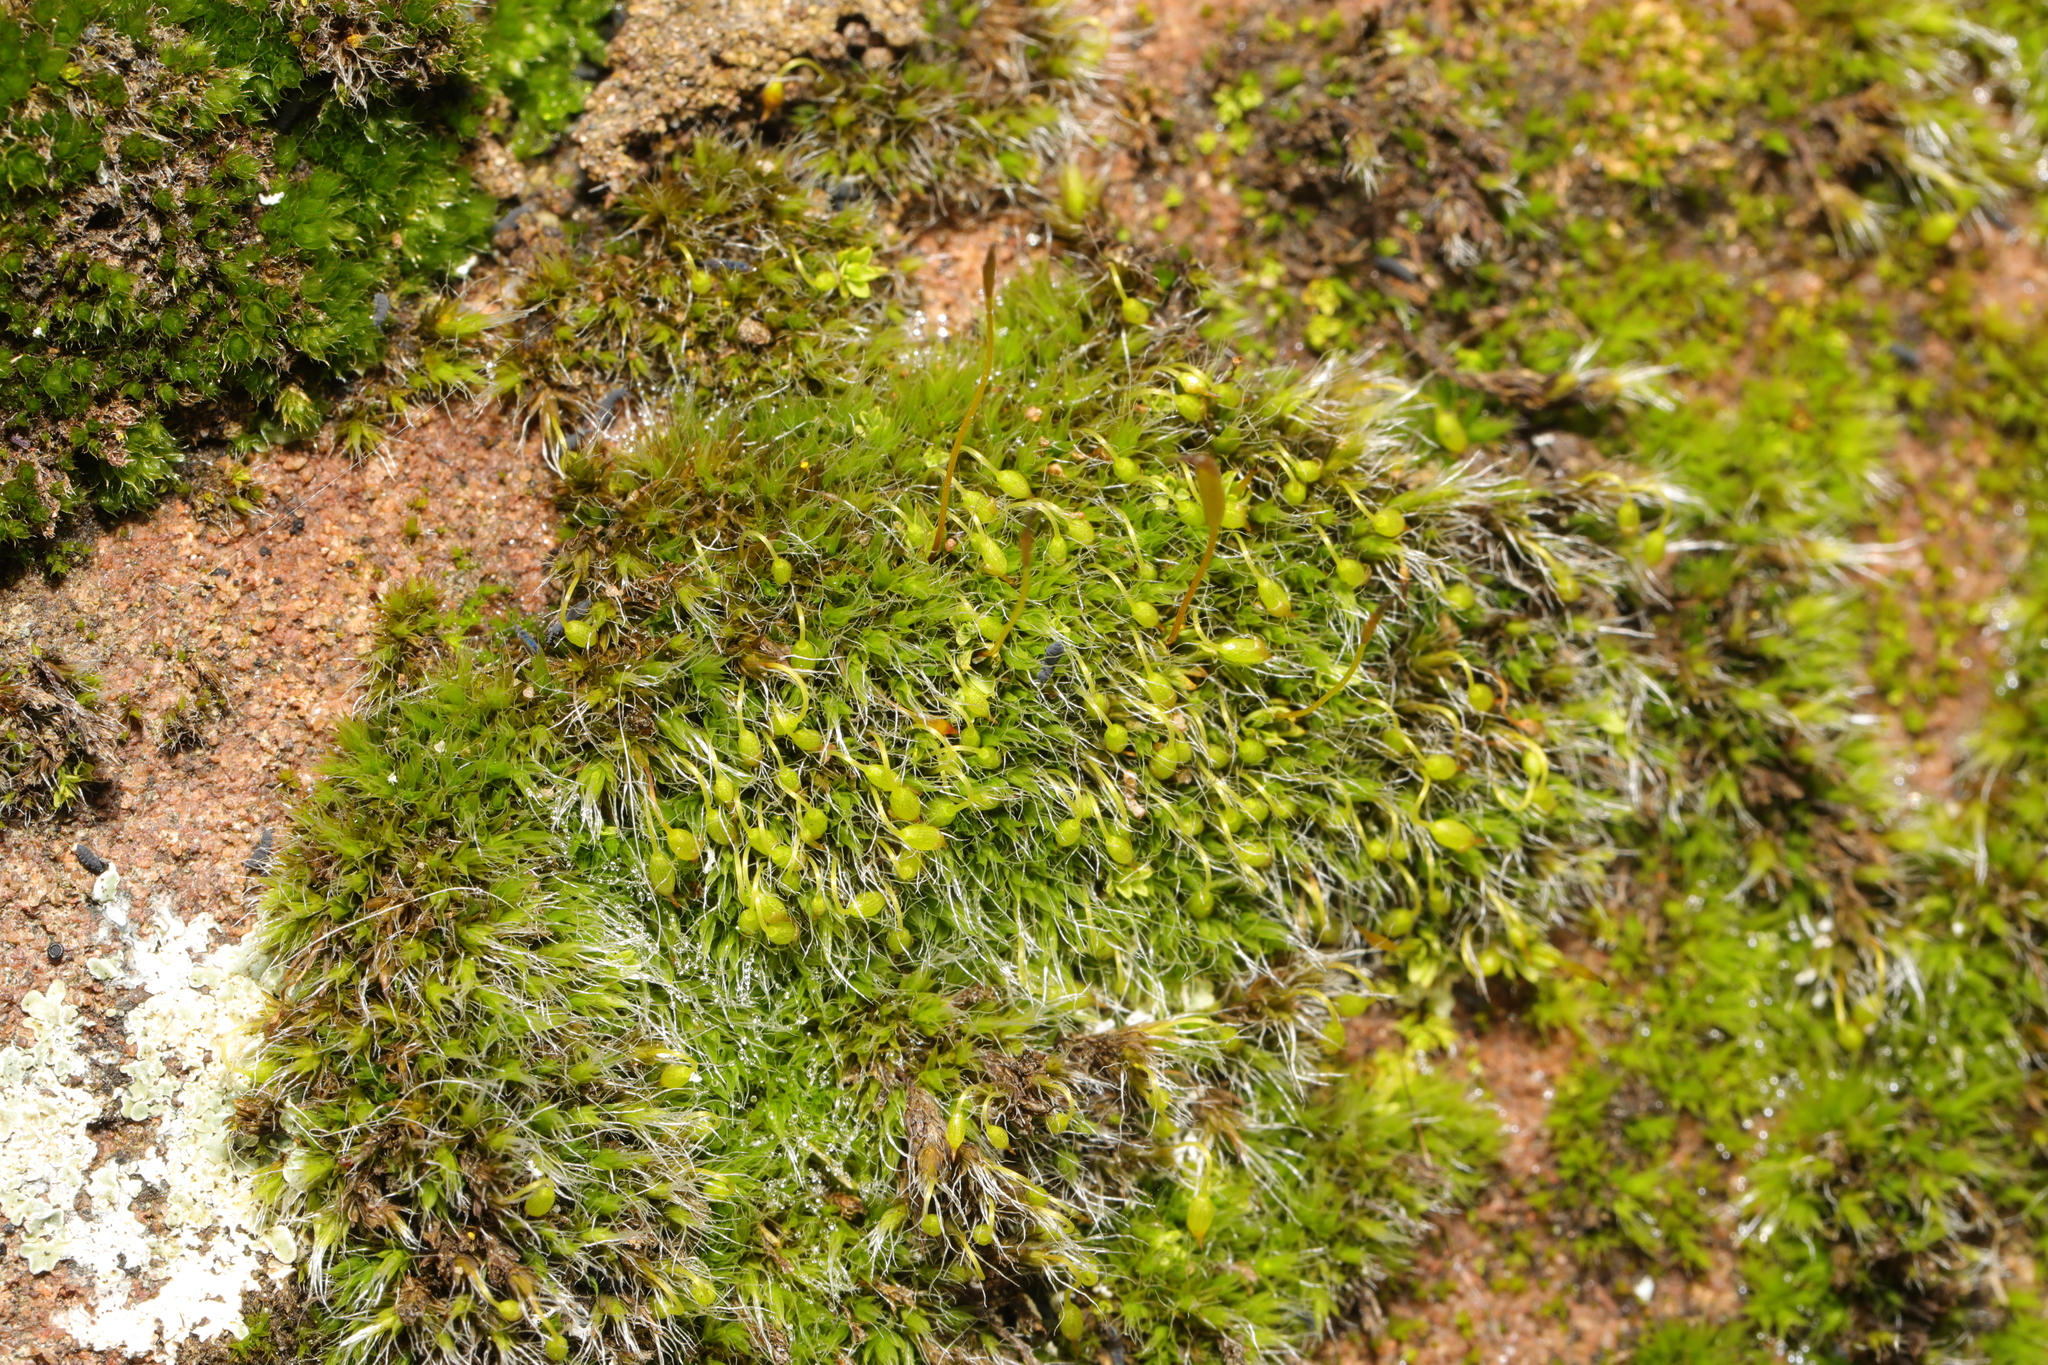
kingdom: Plantae
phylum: Bryophyta
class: Bryopsida
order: Grimmiales
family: Grimmiaceae
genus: Grimmia
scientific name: Grimmia pulvinata
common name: Grey-cushioned grimmia
